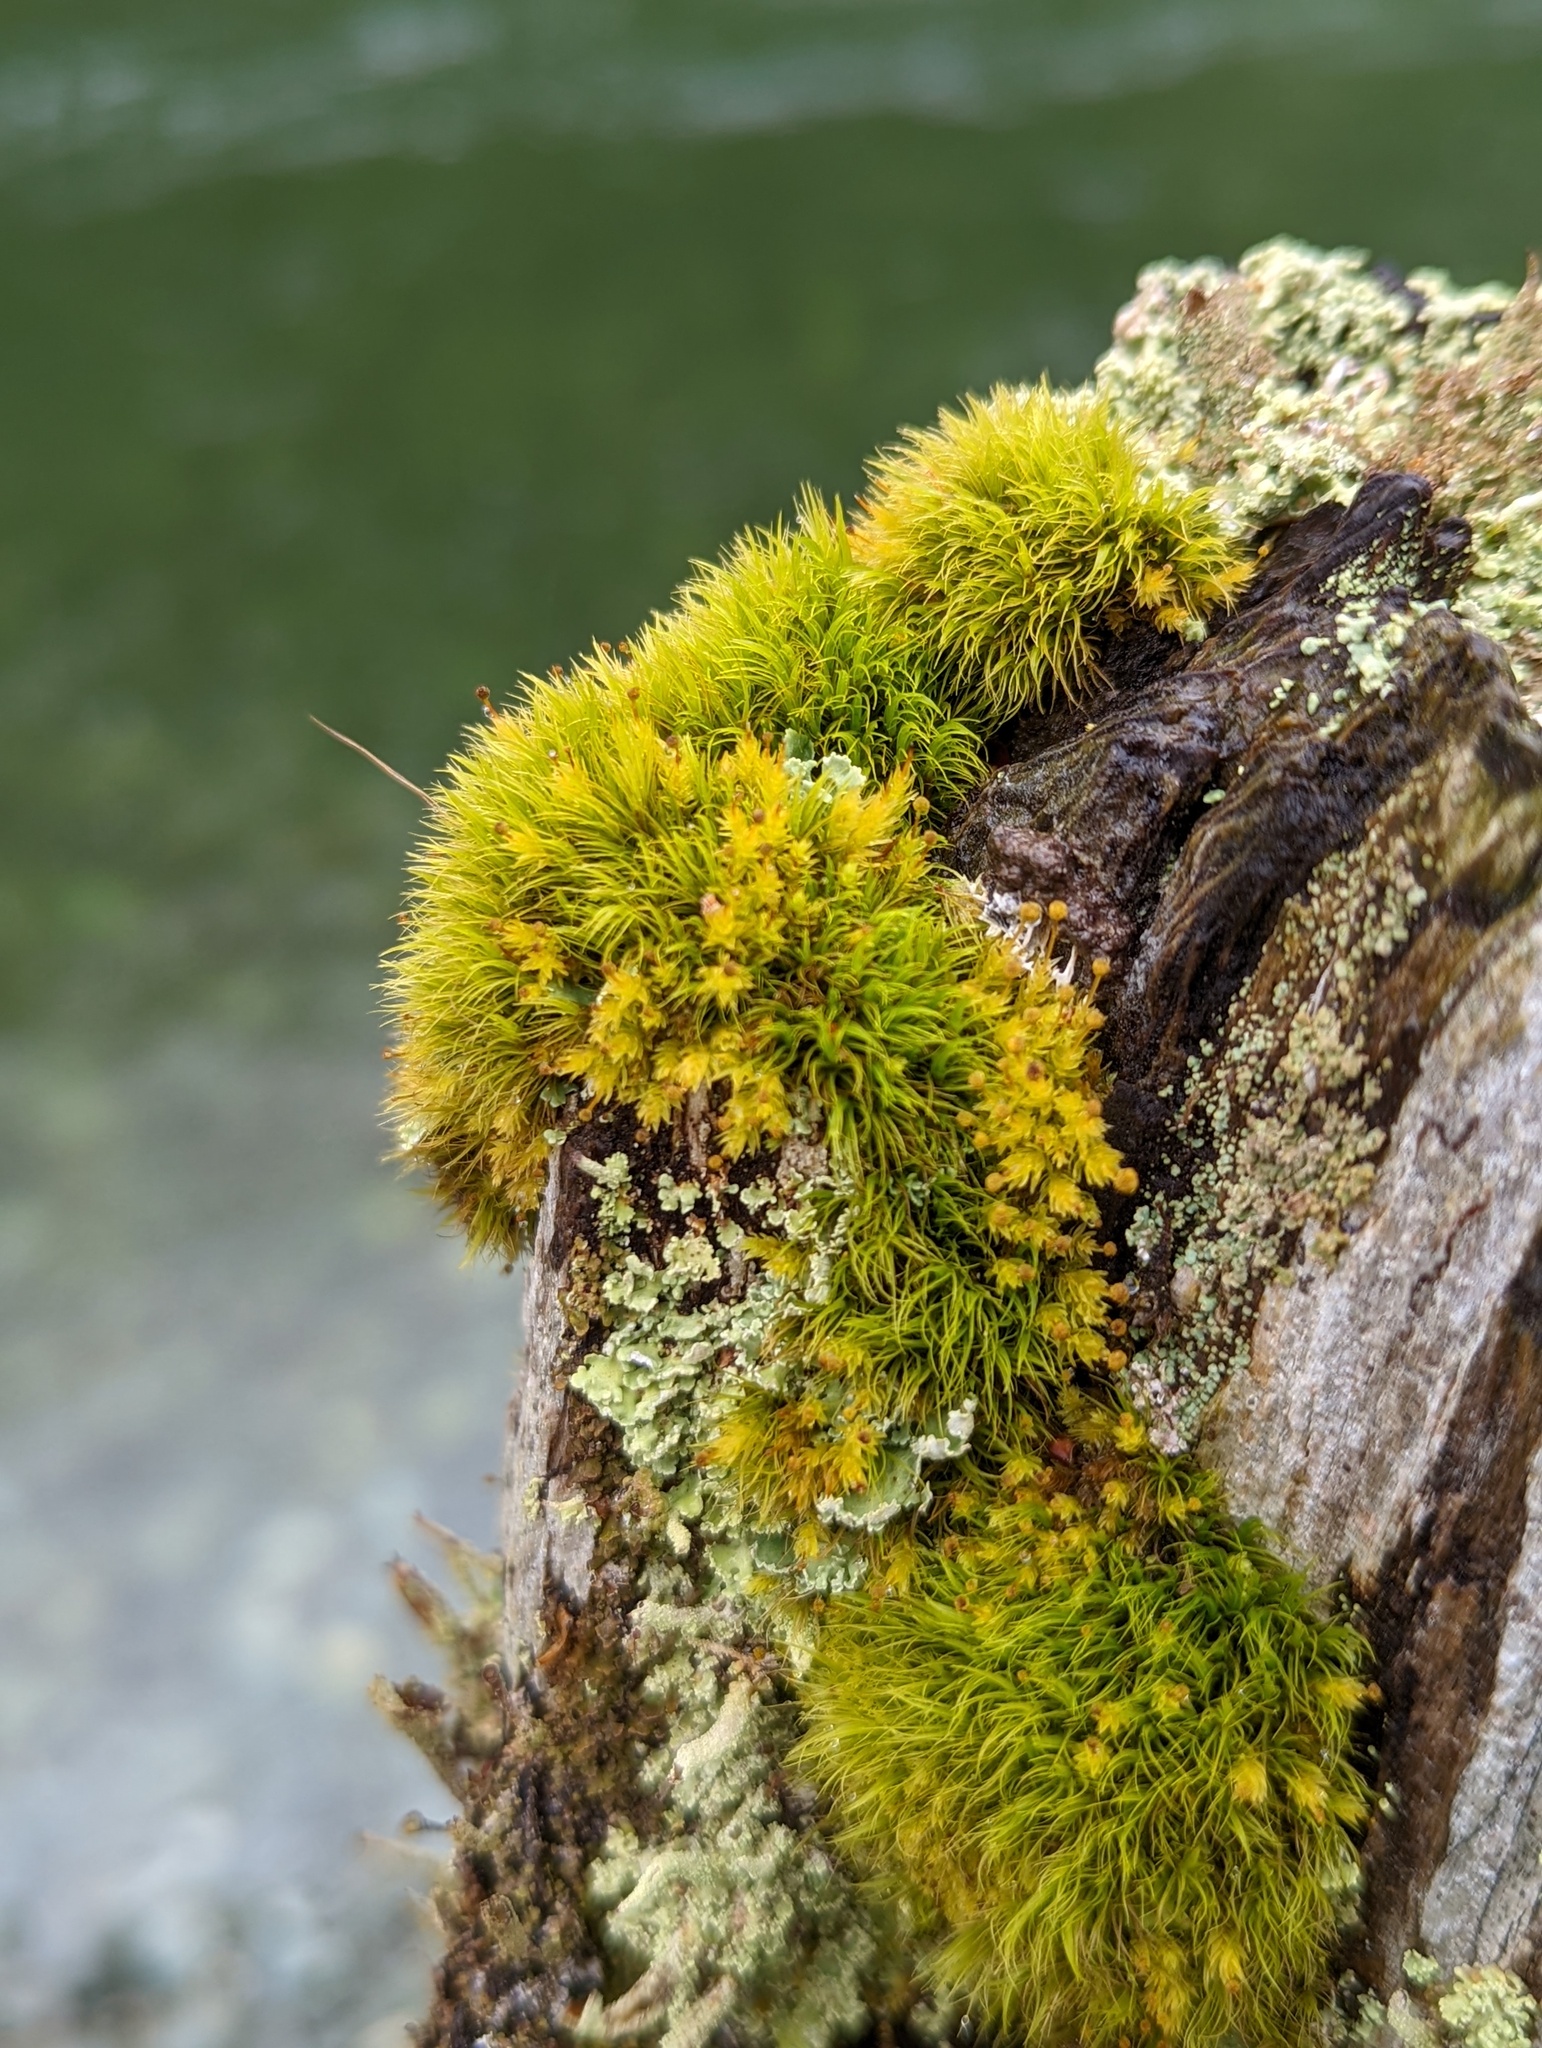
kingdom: Plantae
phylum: Bryophyta
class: Bryopsida
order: Aulacomniales
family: Aulacomniaceae
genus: Aulacomnium
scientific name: Aulacomnium androgynum
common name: Little groove moss
